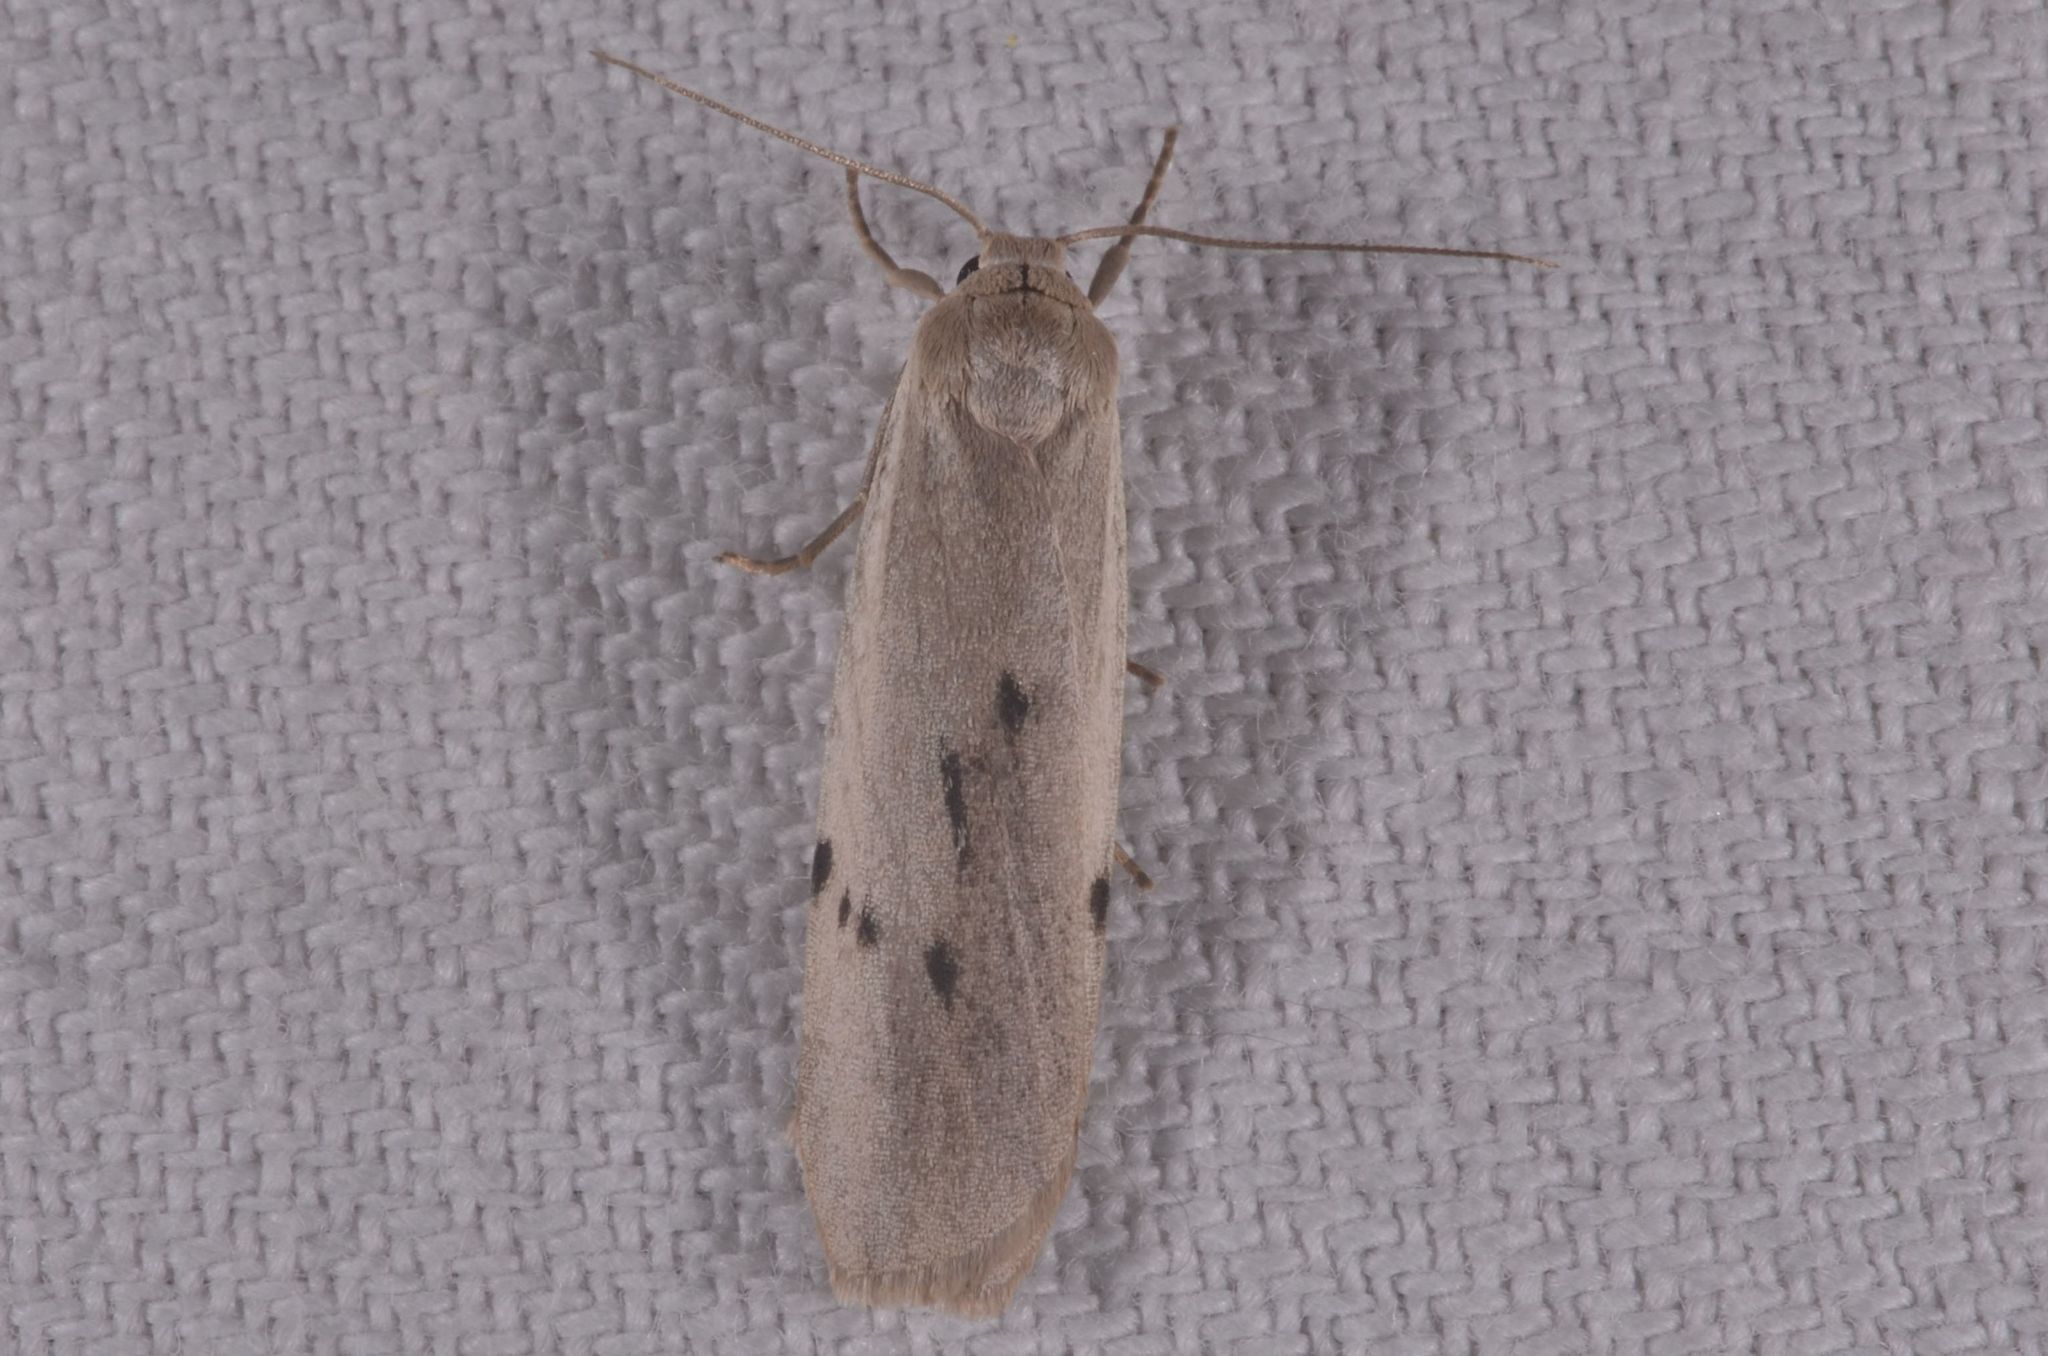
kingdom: Animalia
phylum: Arthropoda
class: Insecta
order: Lepidoptera
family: Erebidae
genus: Pelosia
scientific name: Pelosia muscerda
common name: Dotted footman
